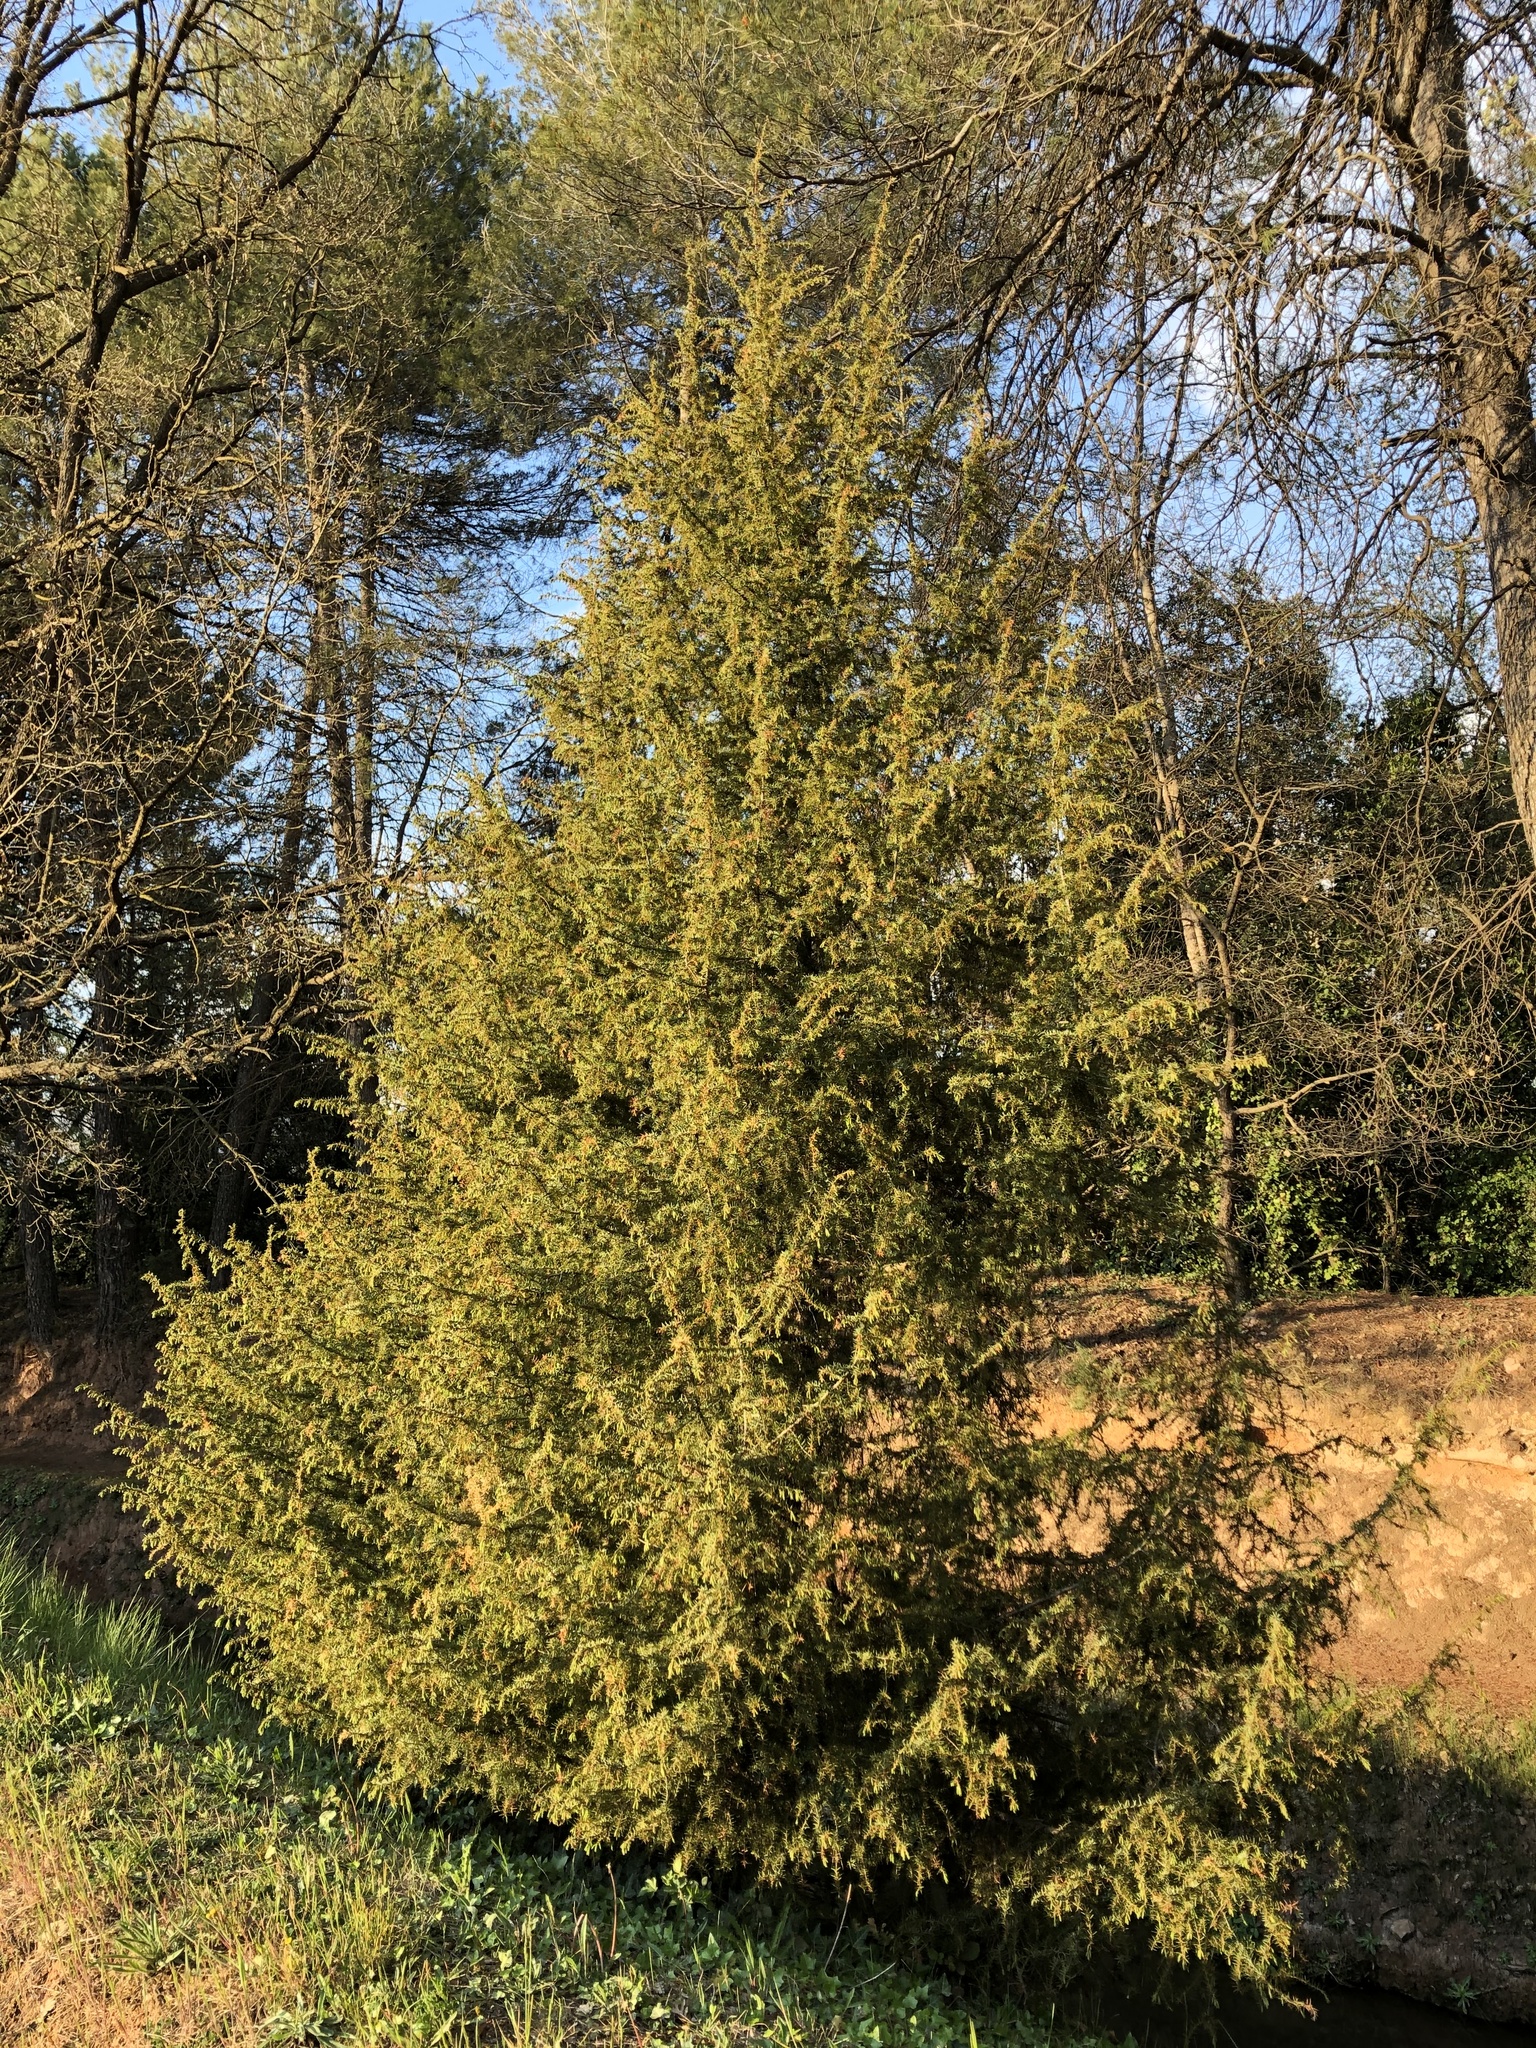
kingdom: Plantae
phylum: Tracheophyta
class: Pinopsida
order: Pinales
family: Cupressaceae
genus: Juniperus
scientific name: Juniperus communis
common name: Common juniper
